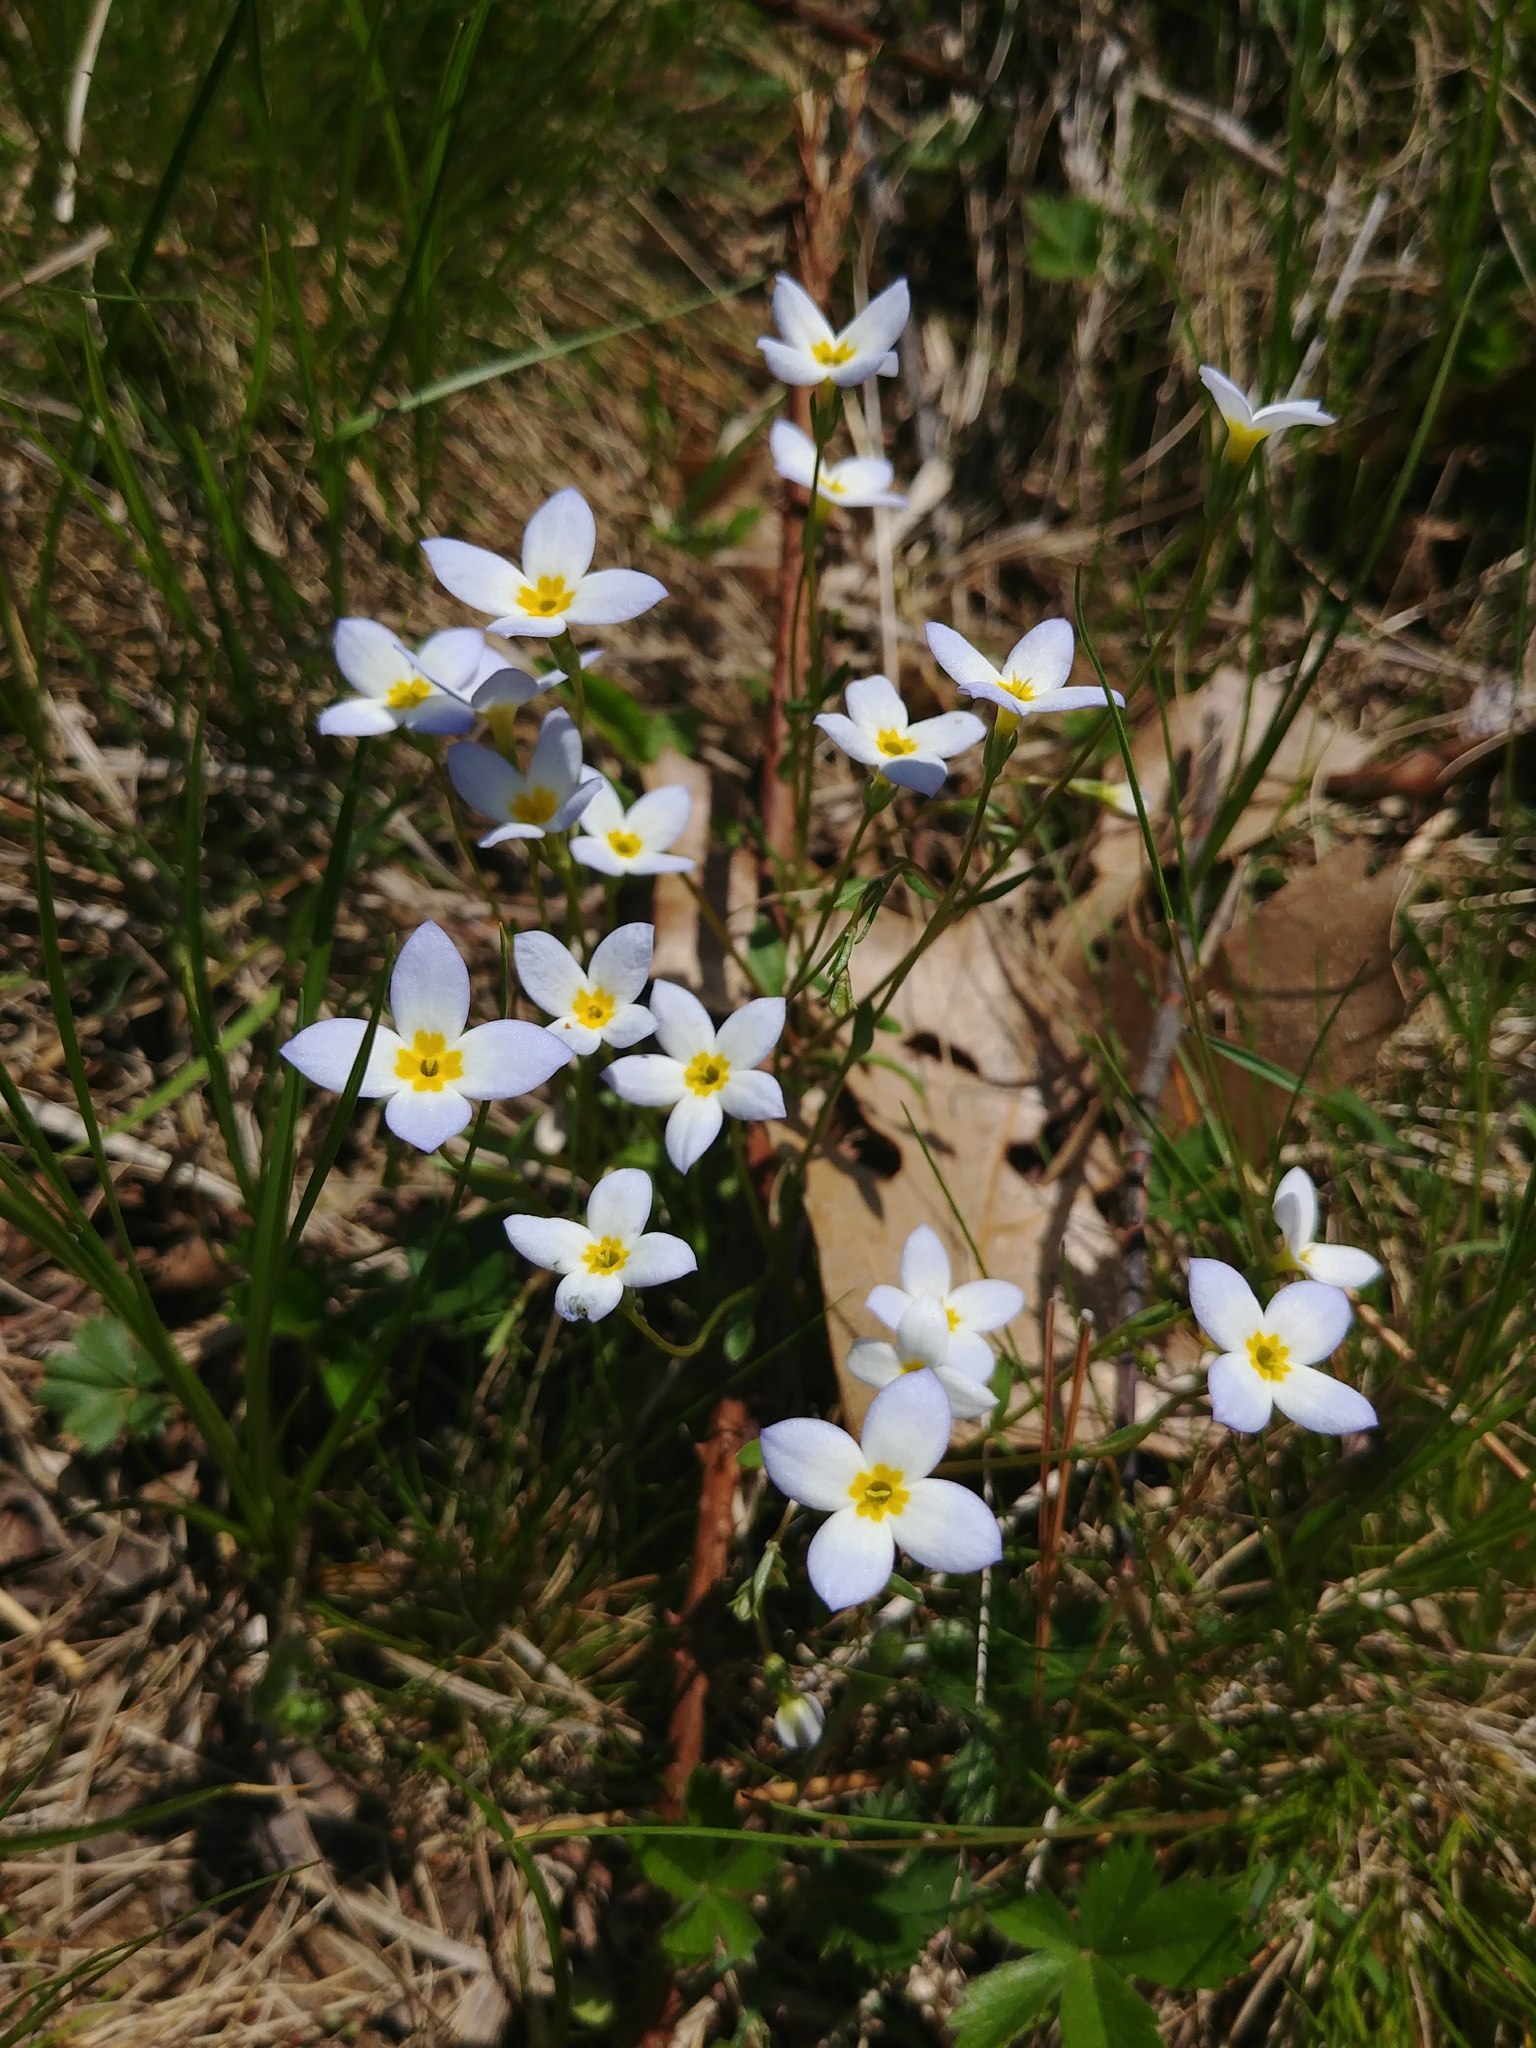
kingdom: Plantae
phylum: Tracheophyta
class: Magnoliopsida
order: Gentianales
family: Rubiaceae
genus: Houstonia
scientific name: Houstonia caerulea
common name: Bluets
